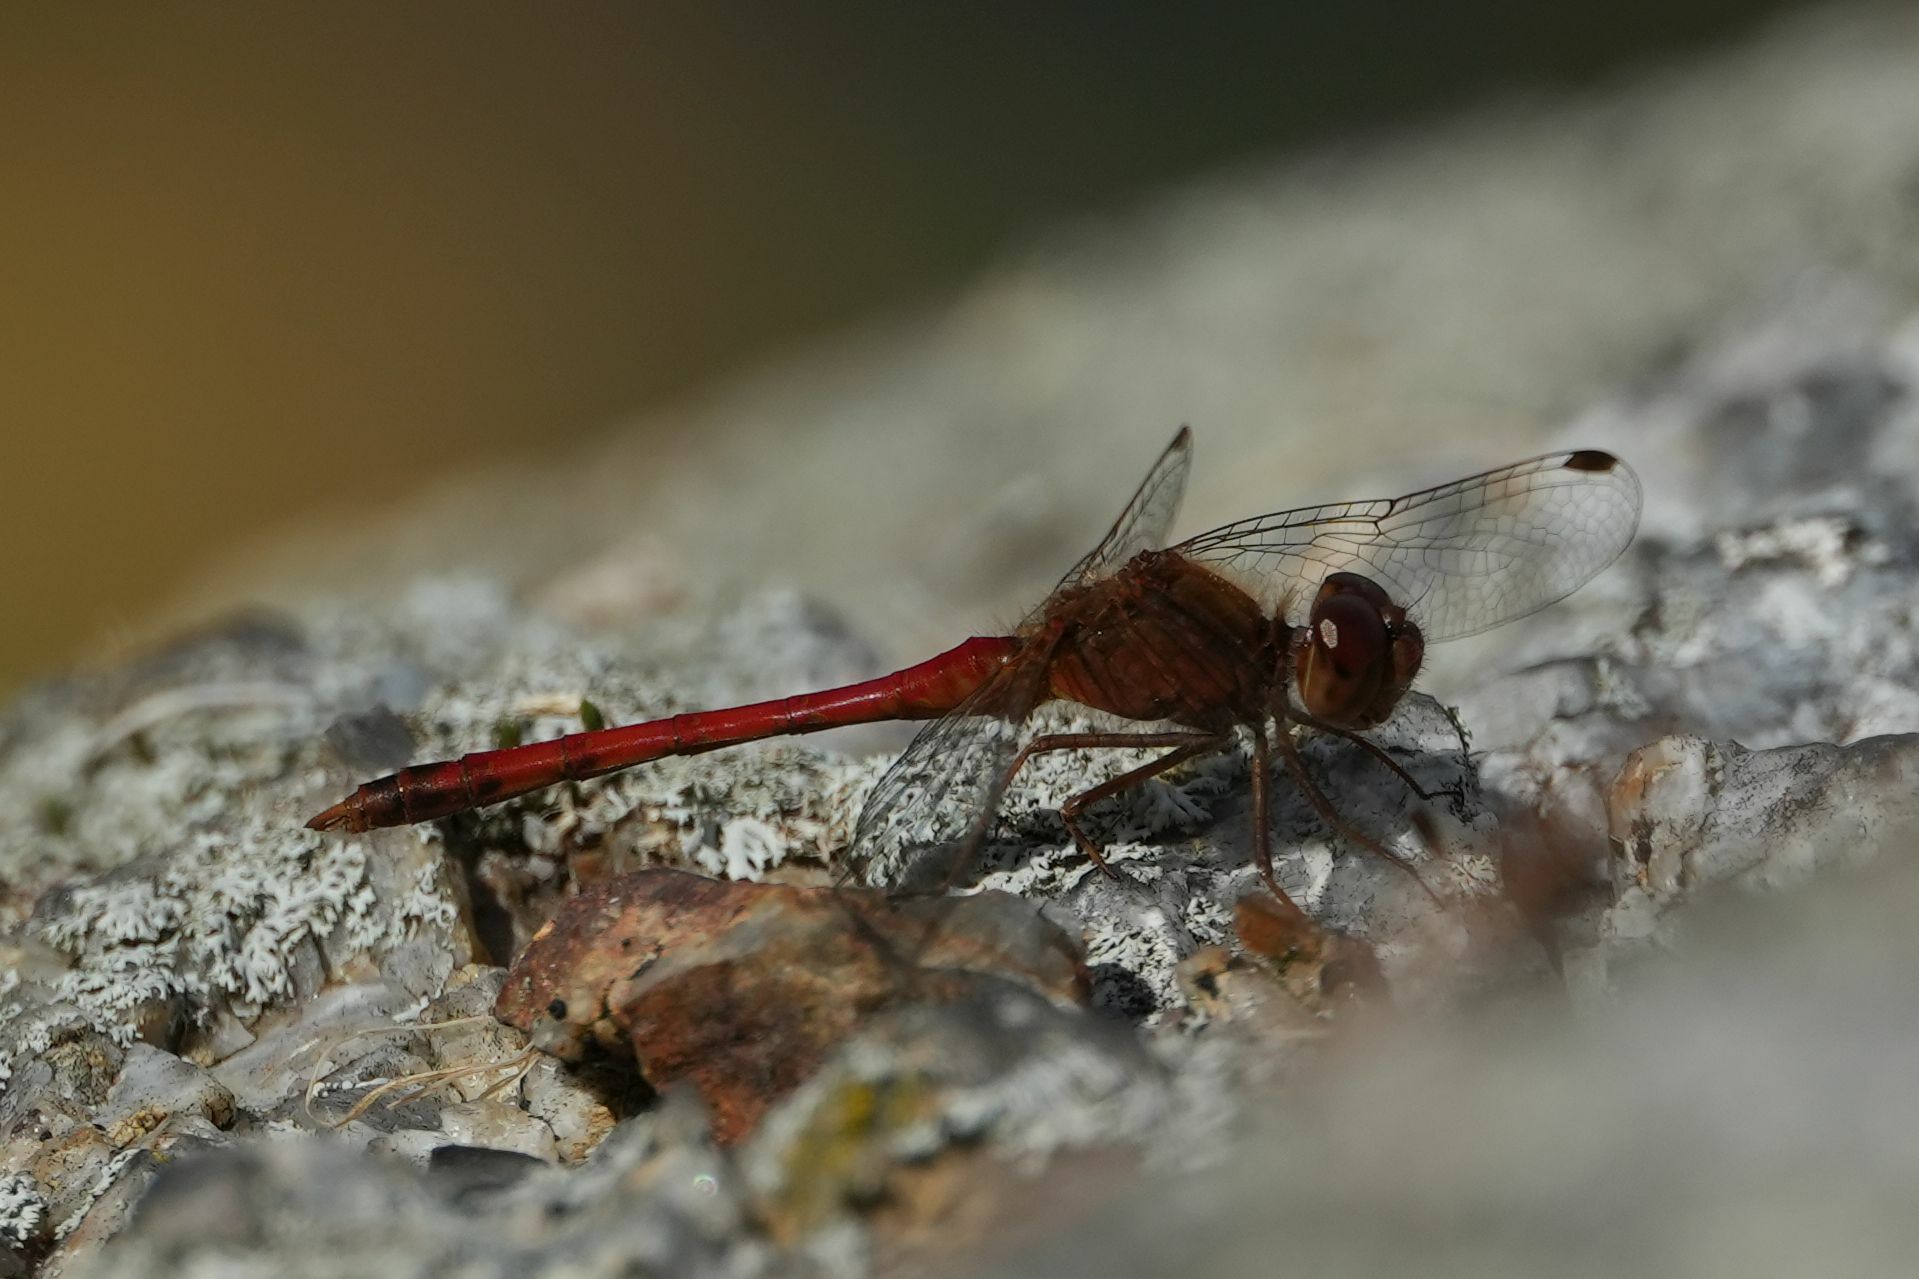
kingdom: Animalia
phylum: Arthropoda
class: Insecta
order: Odonata
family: Libellulidae
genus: Sympetrum
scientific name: Sympetrum vicinum
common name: Autumn meadowhawk
